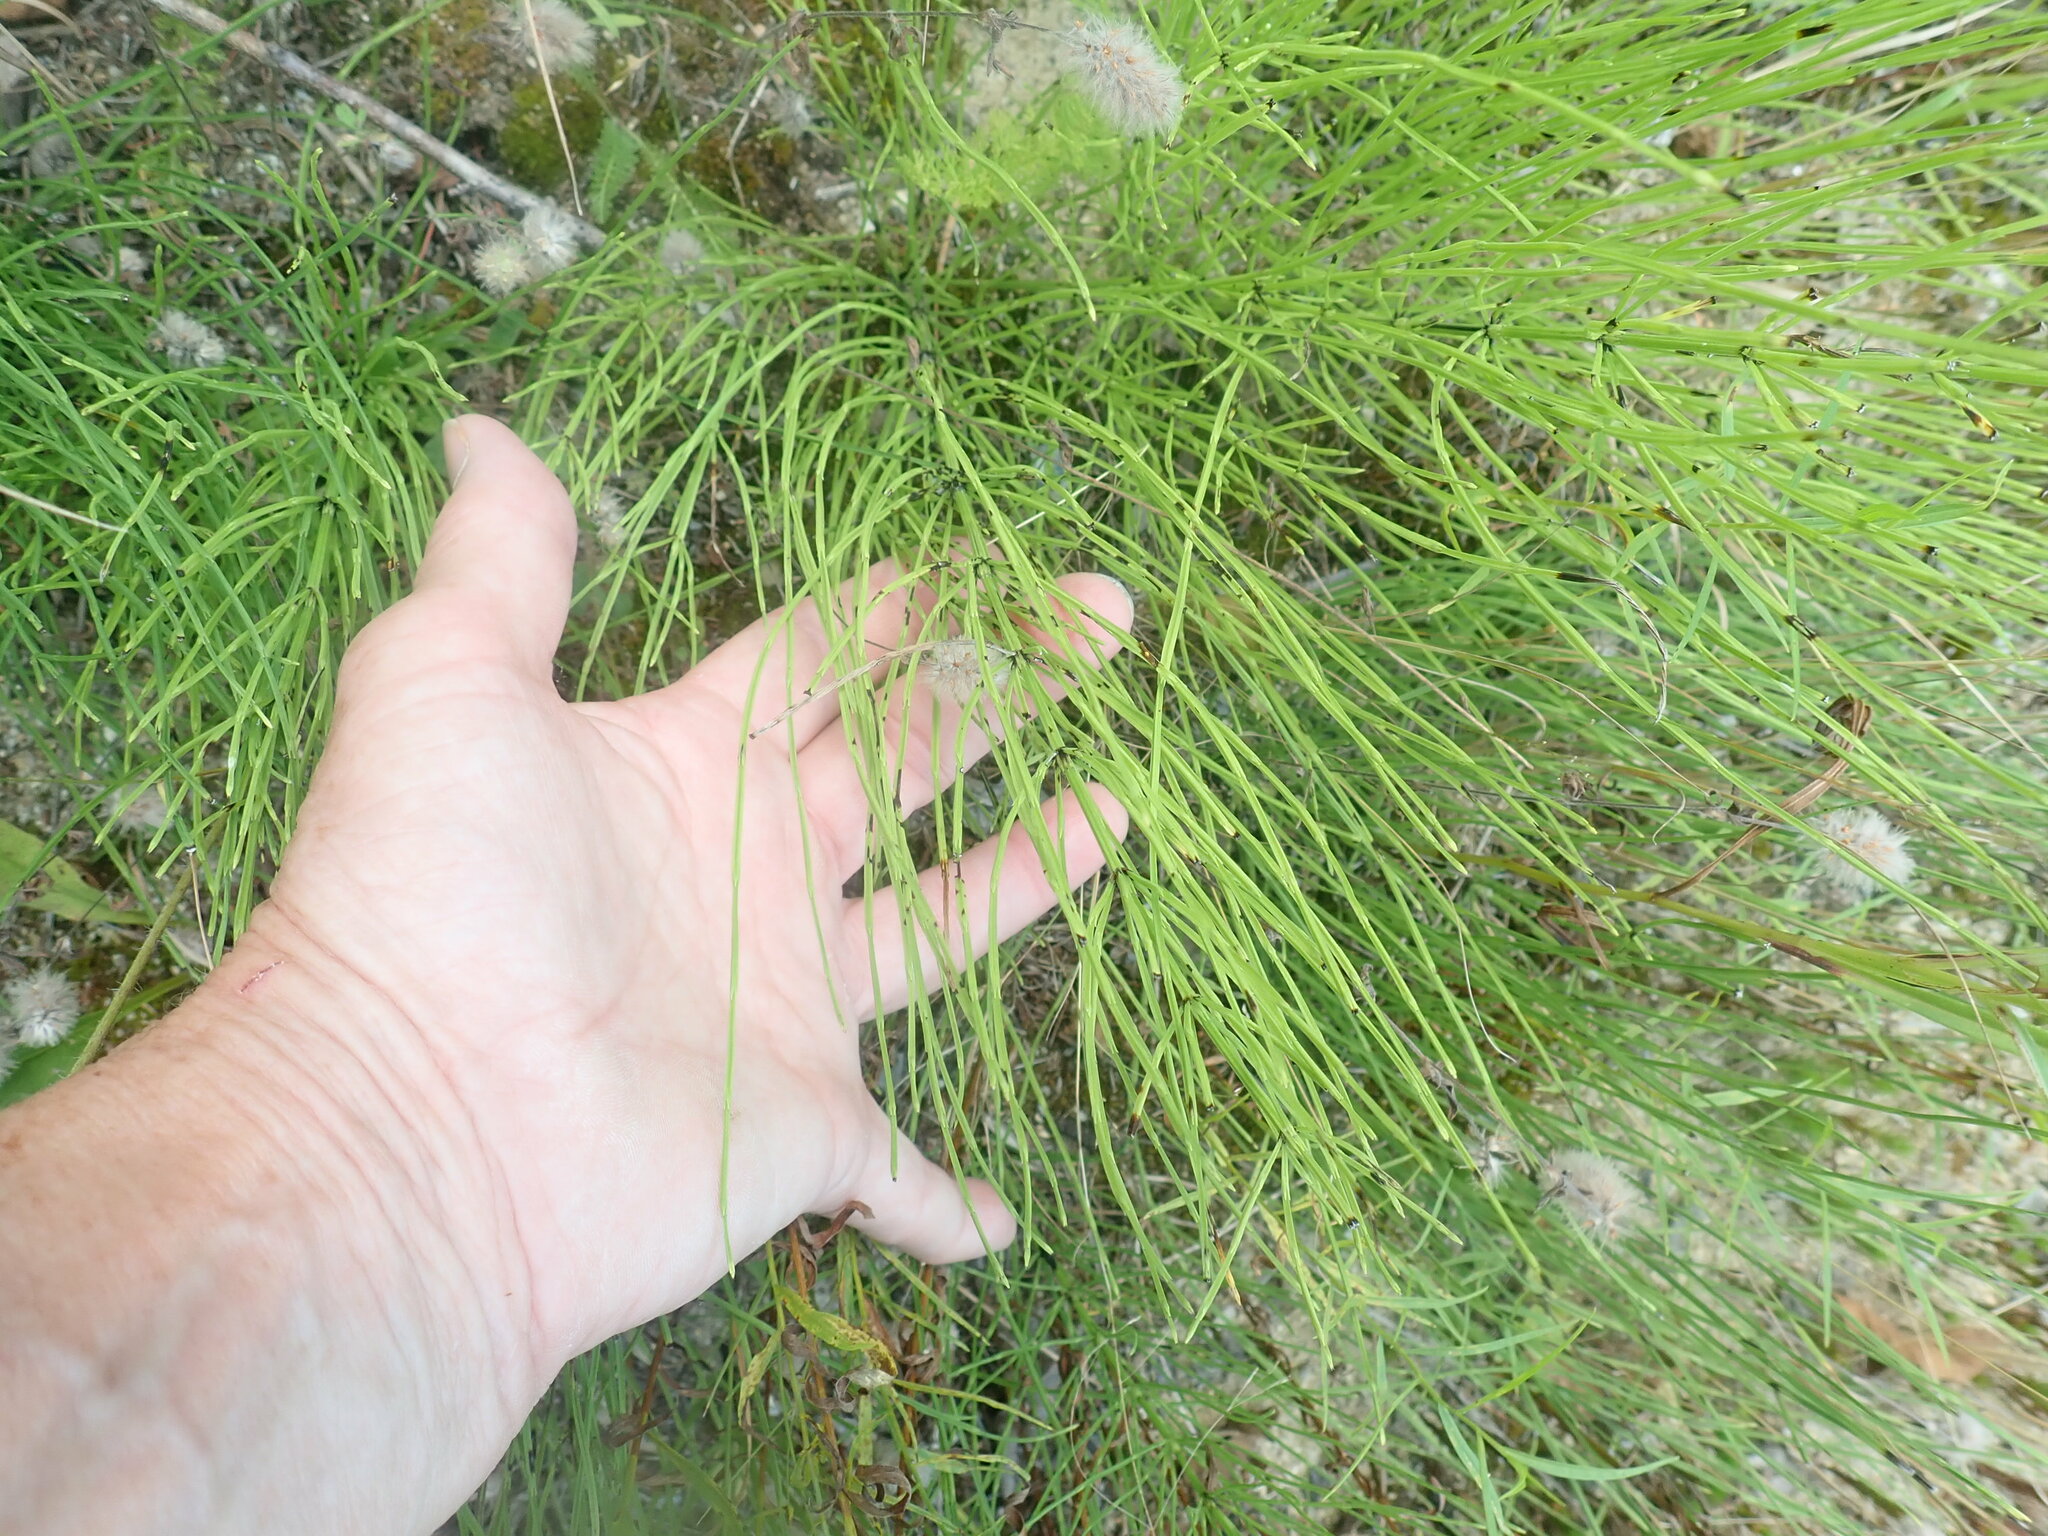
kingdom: Plantae
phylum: Tracheophyta
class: Polypodiopsida
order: Equisetales
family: Equisetaceae
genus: Equisetum
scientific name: Equisetum arvense
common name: Field horsetail
